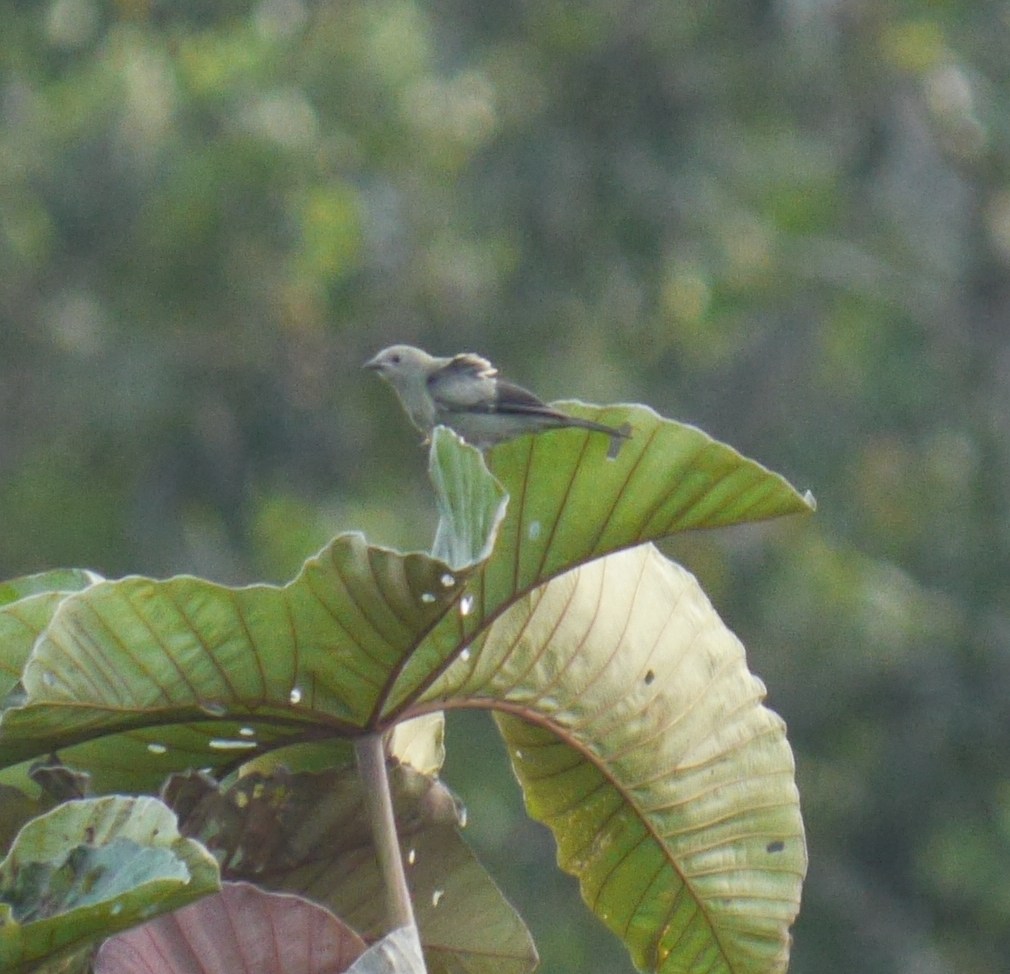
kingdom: Animalia
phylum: Chordata
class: Aves
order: Passeriformes
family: Thraupidae
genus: Thraupis
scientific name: Thraupis palmarum
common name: Palm tanager
